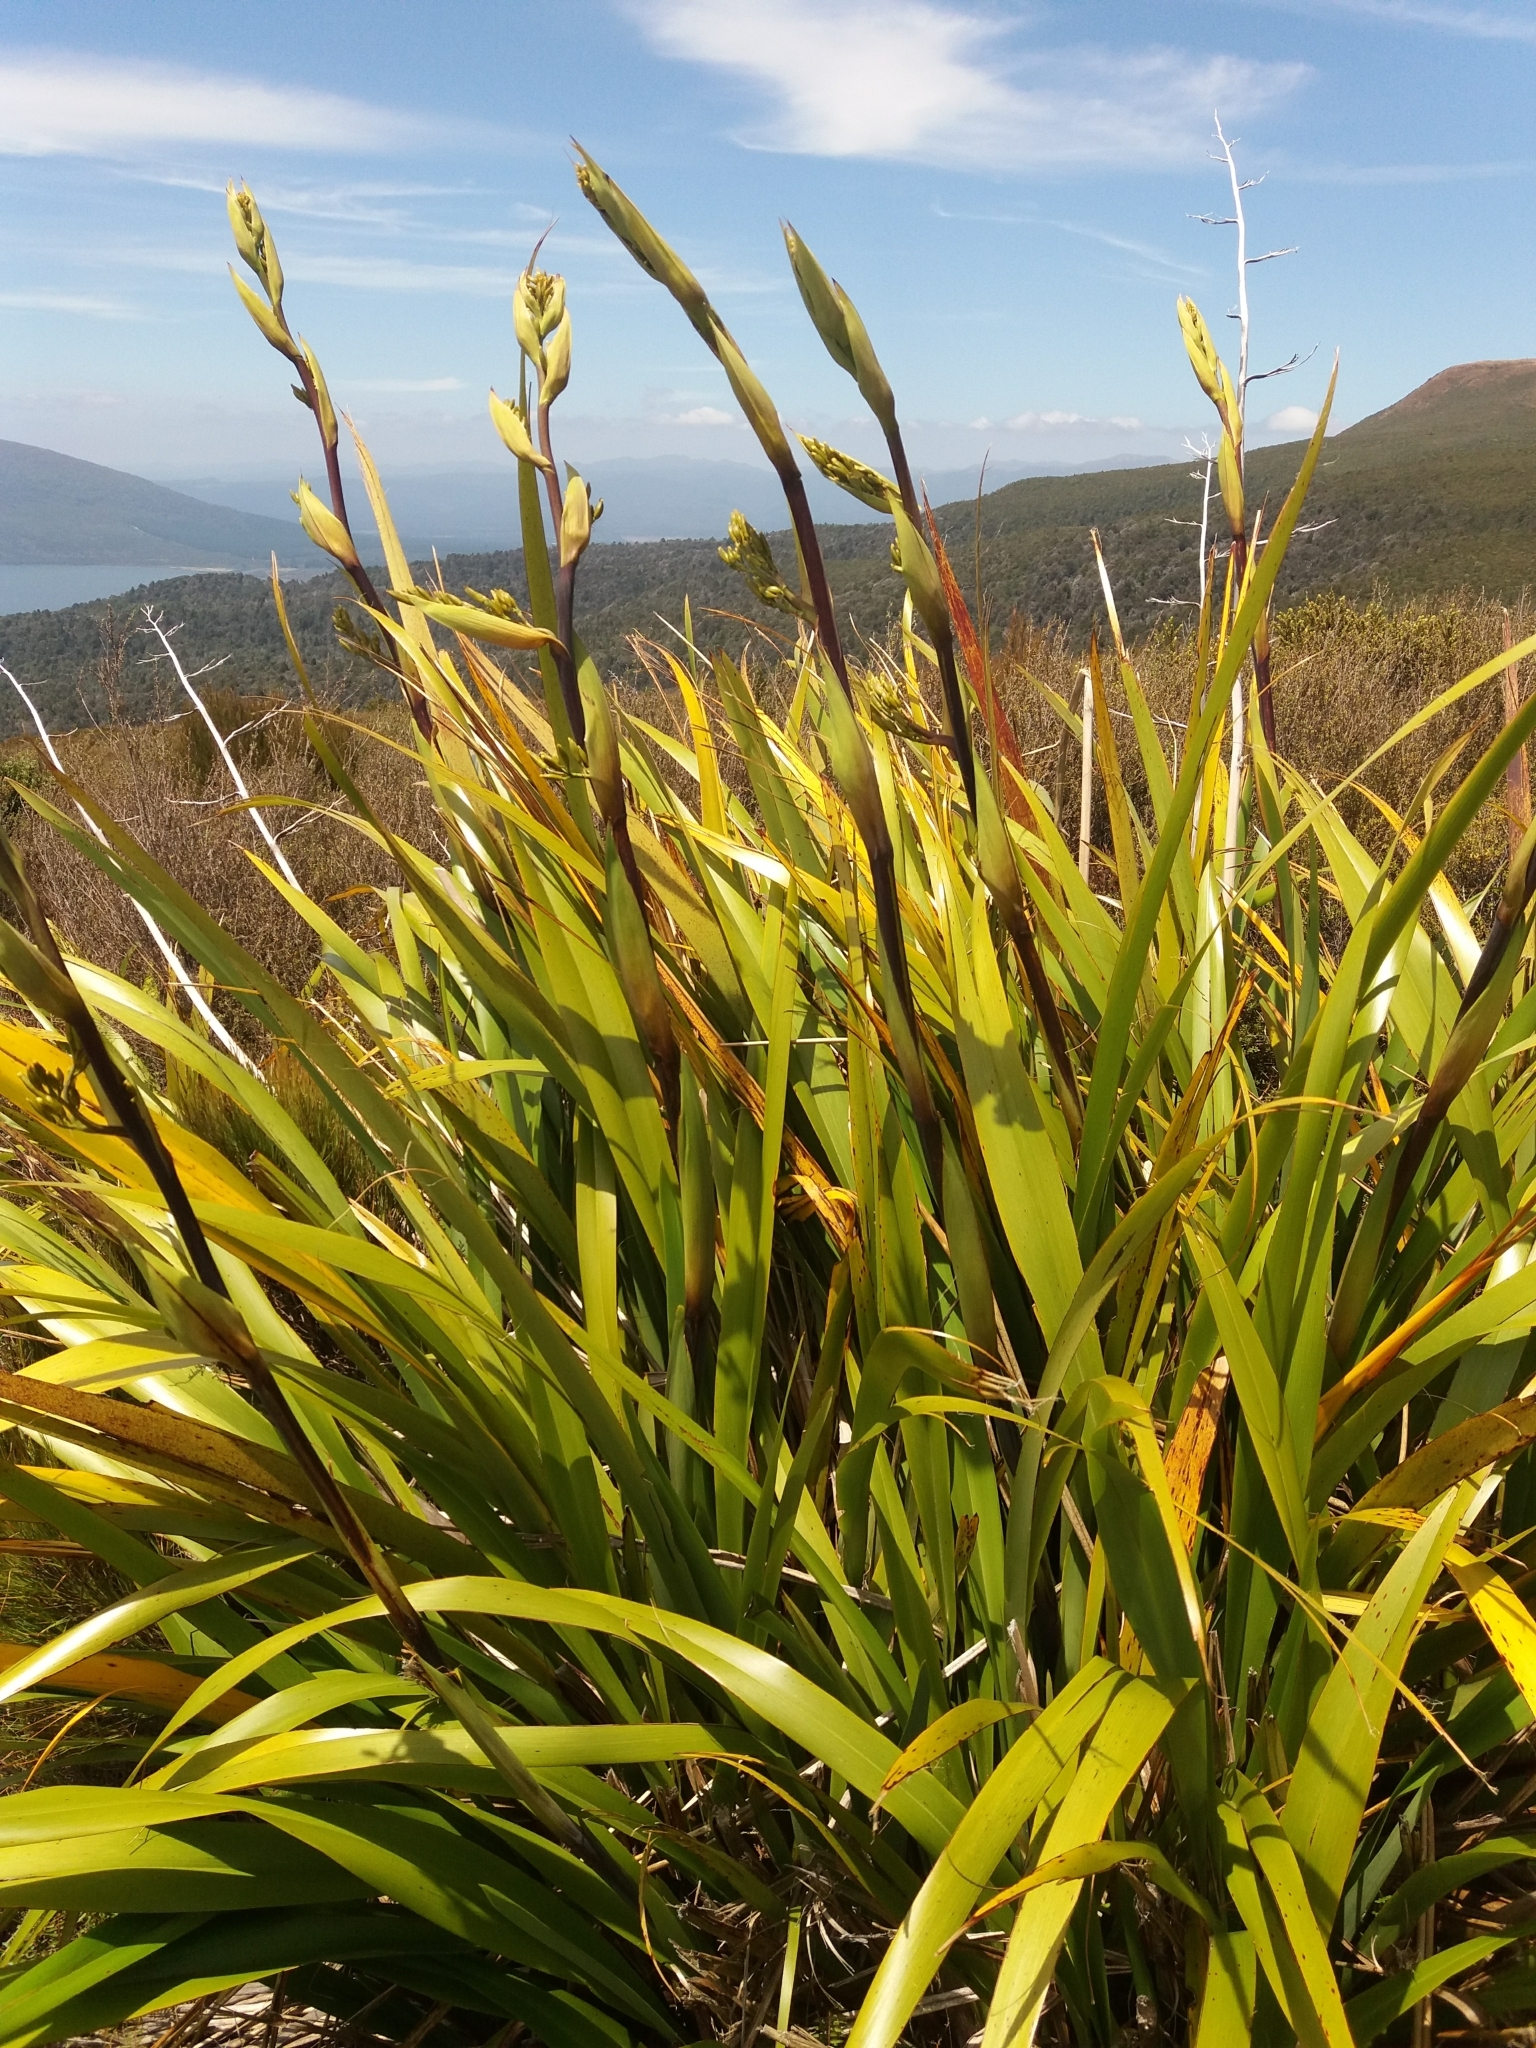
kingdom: Plantae
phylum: Tracheophyta
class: Liliopsida
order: Asparagales
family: Asphodelaceae
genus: Phormium
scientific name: Phormium colensoi
